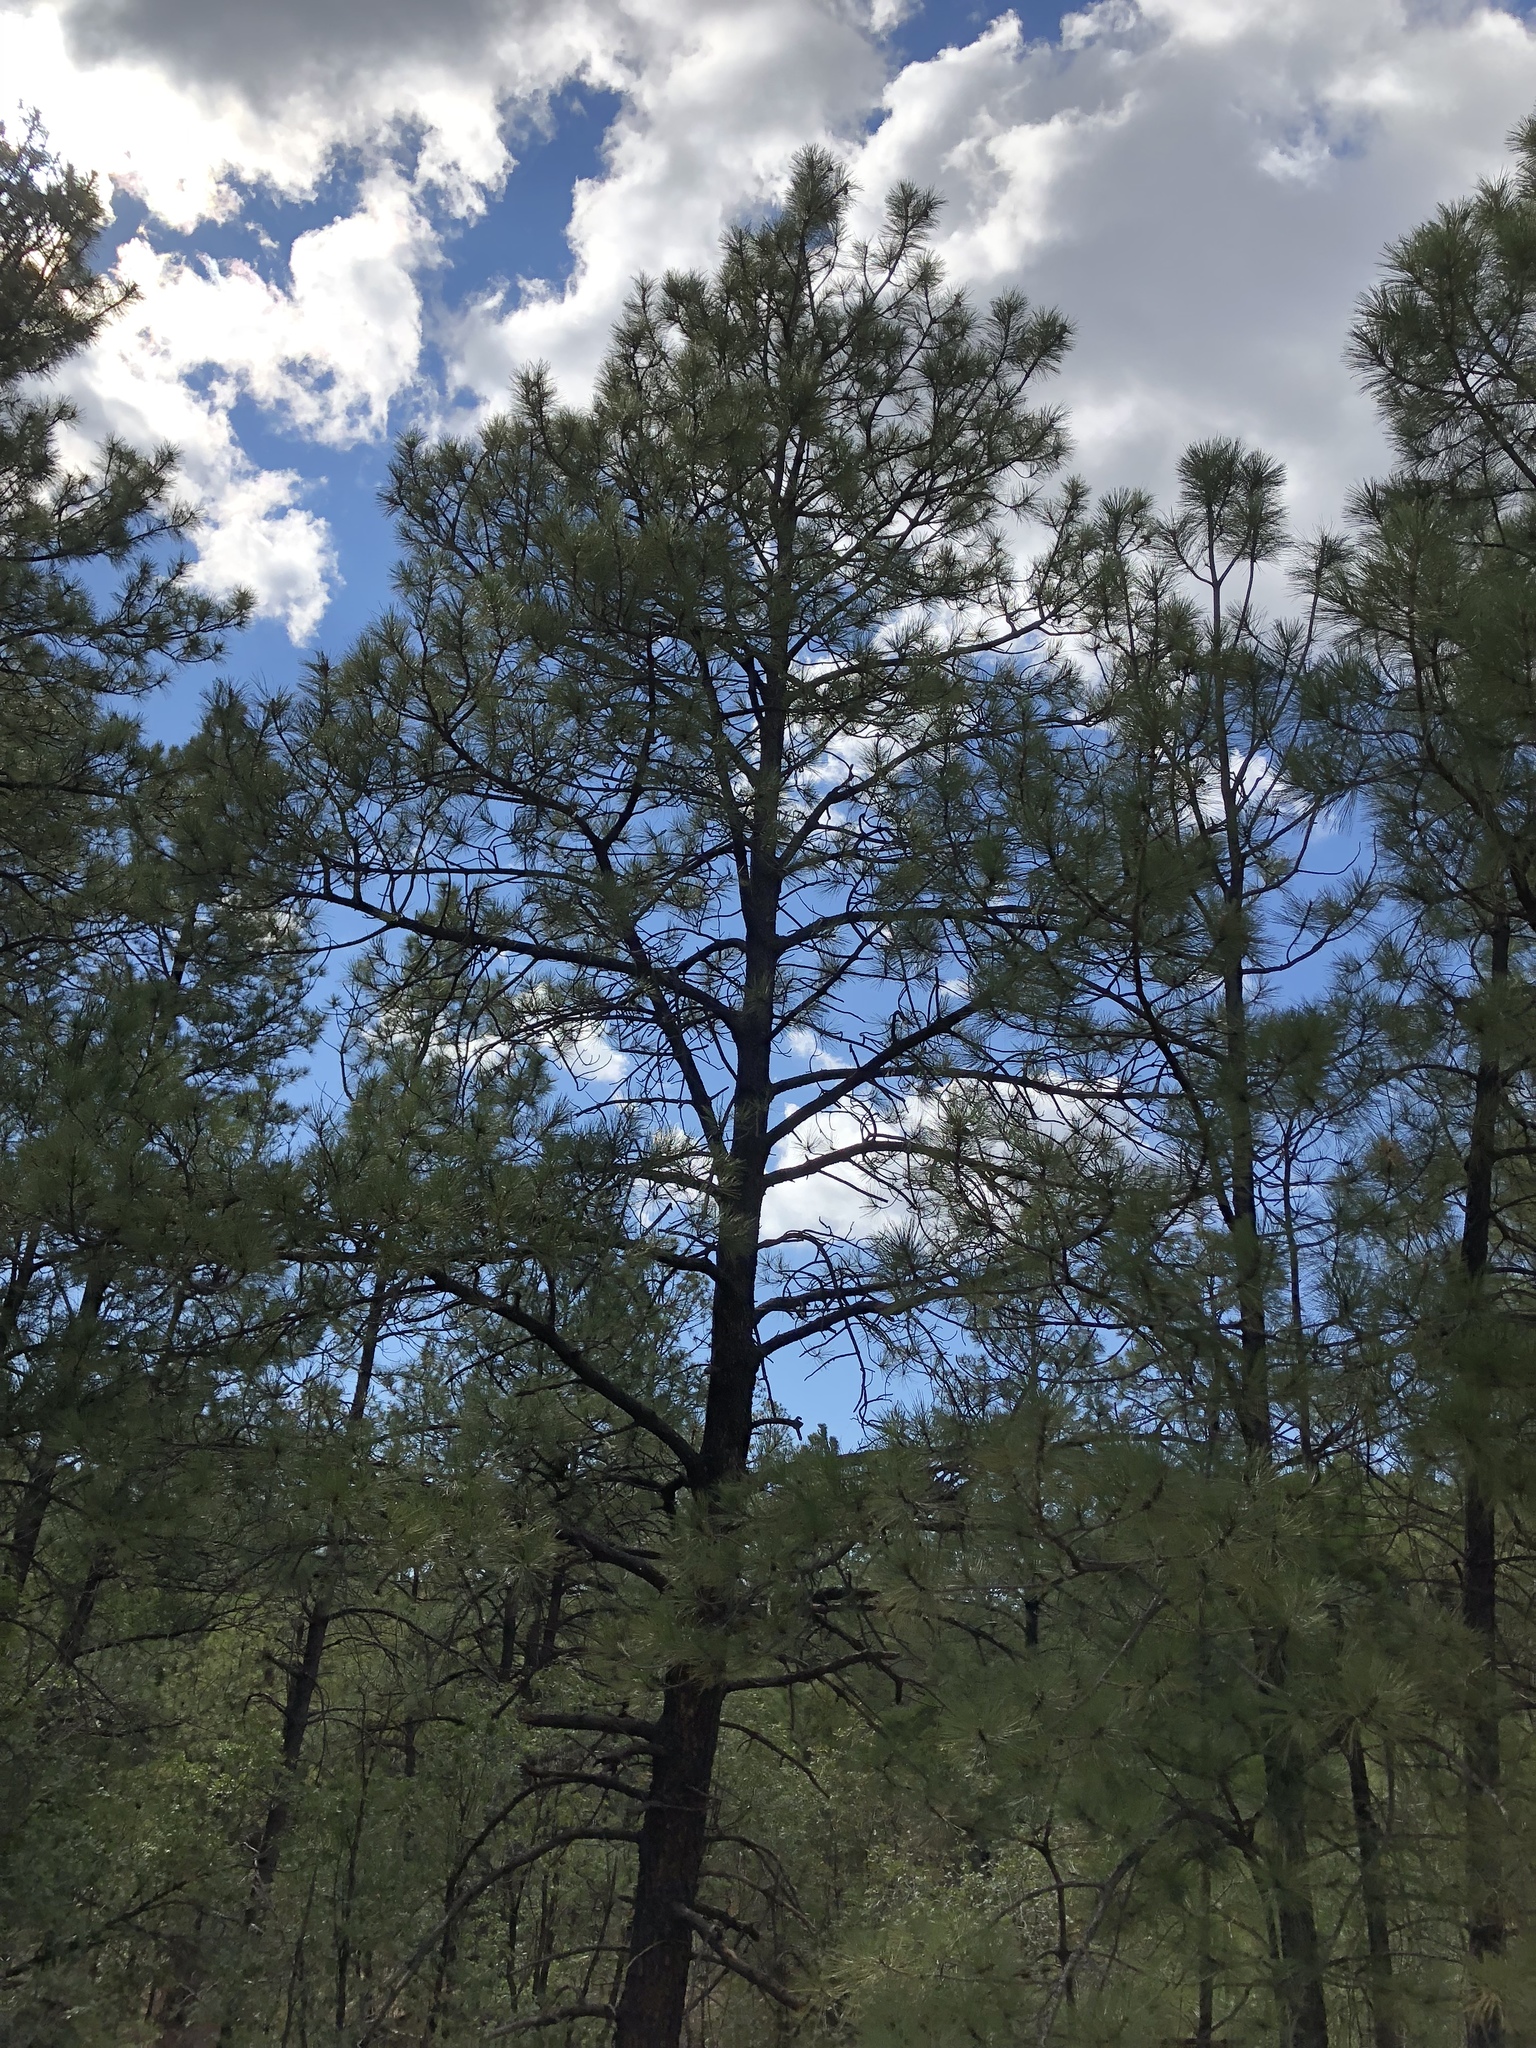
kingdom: Plantae
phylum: Tracheophyta
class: Pinopsida
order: Pinales
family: Pinaceae
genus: Pinus
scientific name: Pinus ponderosa
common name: Western yellow-pine
